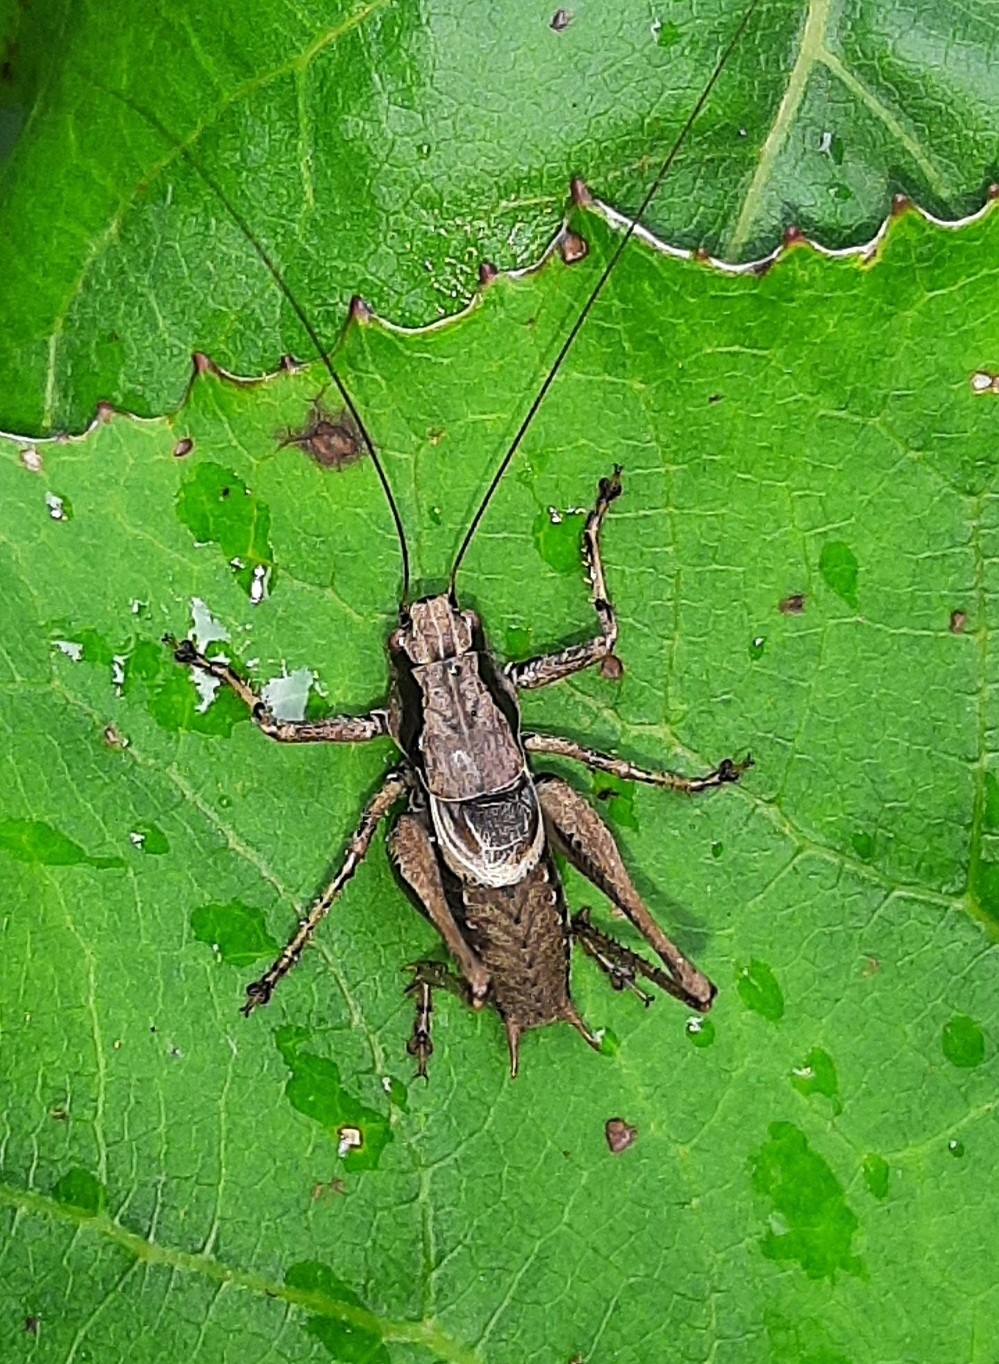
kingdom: Animalia
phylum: Arthropoda
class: Insecta
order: Orthoptera
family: Tettigoniidae
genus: Pholidoptera
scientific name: Pholidoptera griseoaptera
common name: Dark bush-cricket
